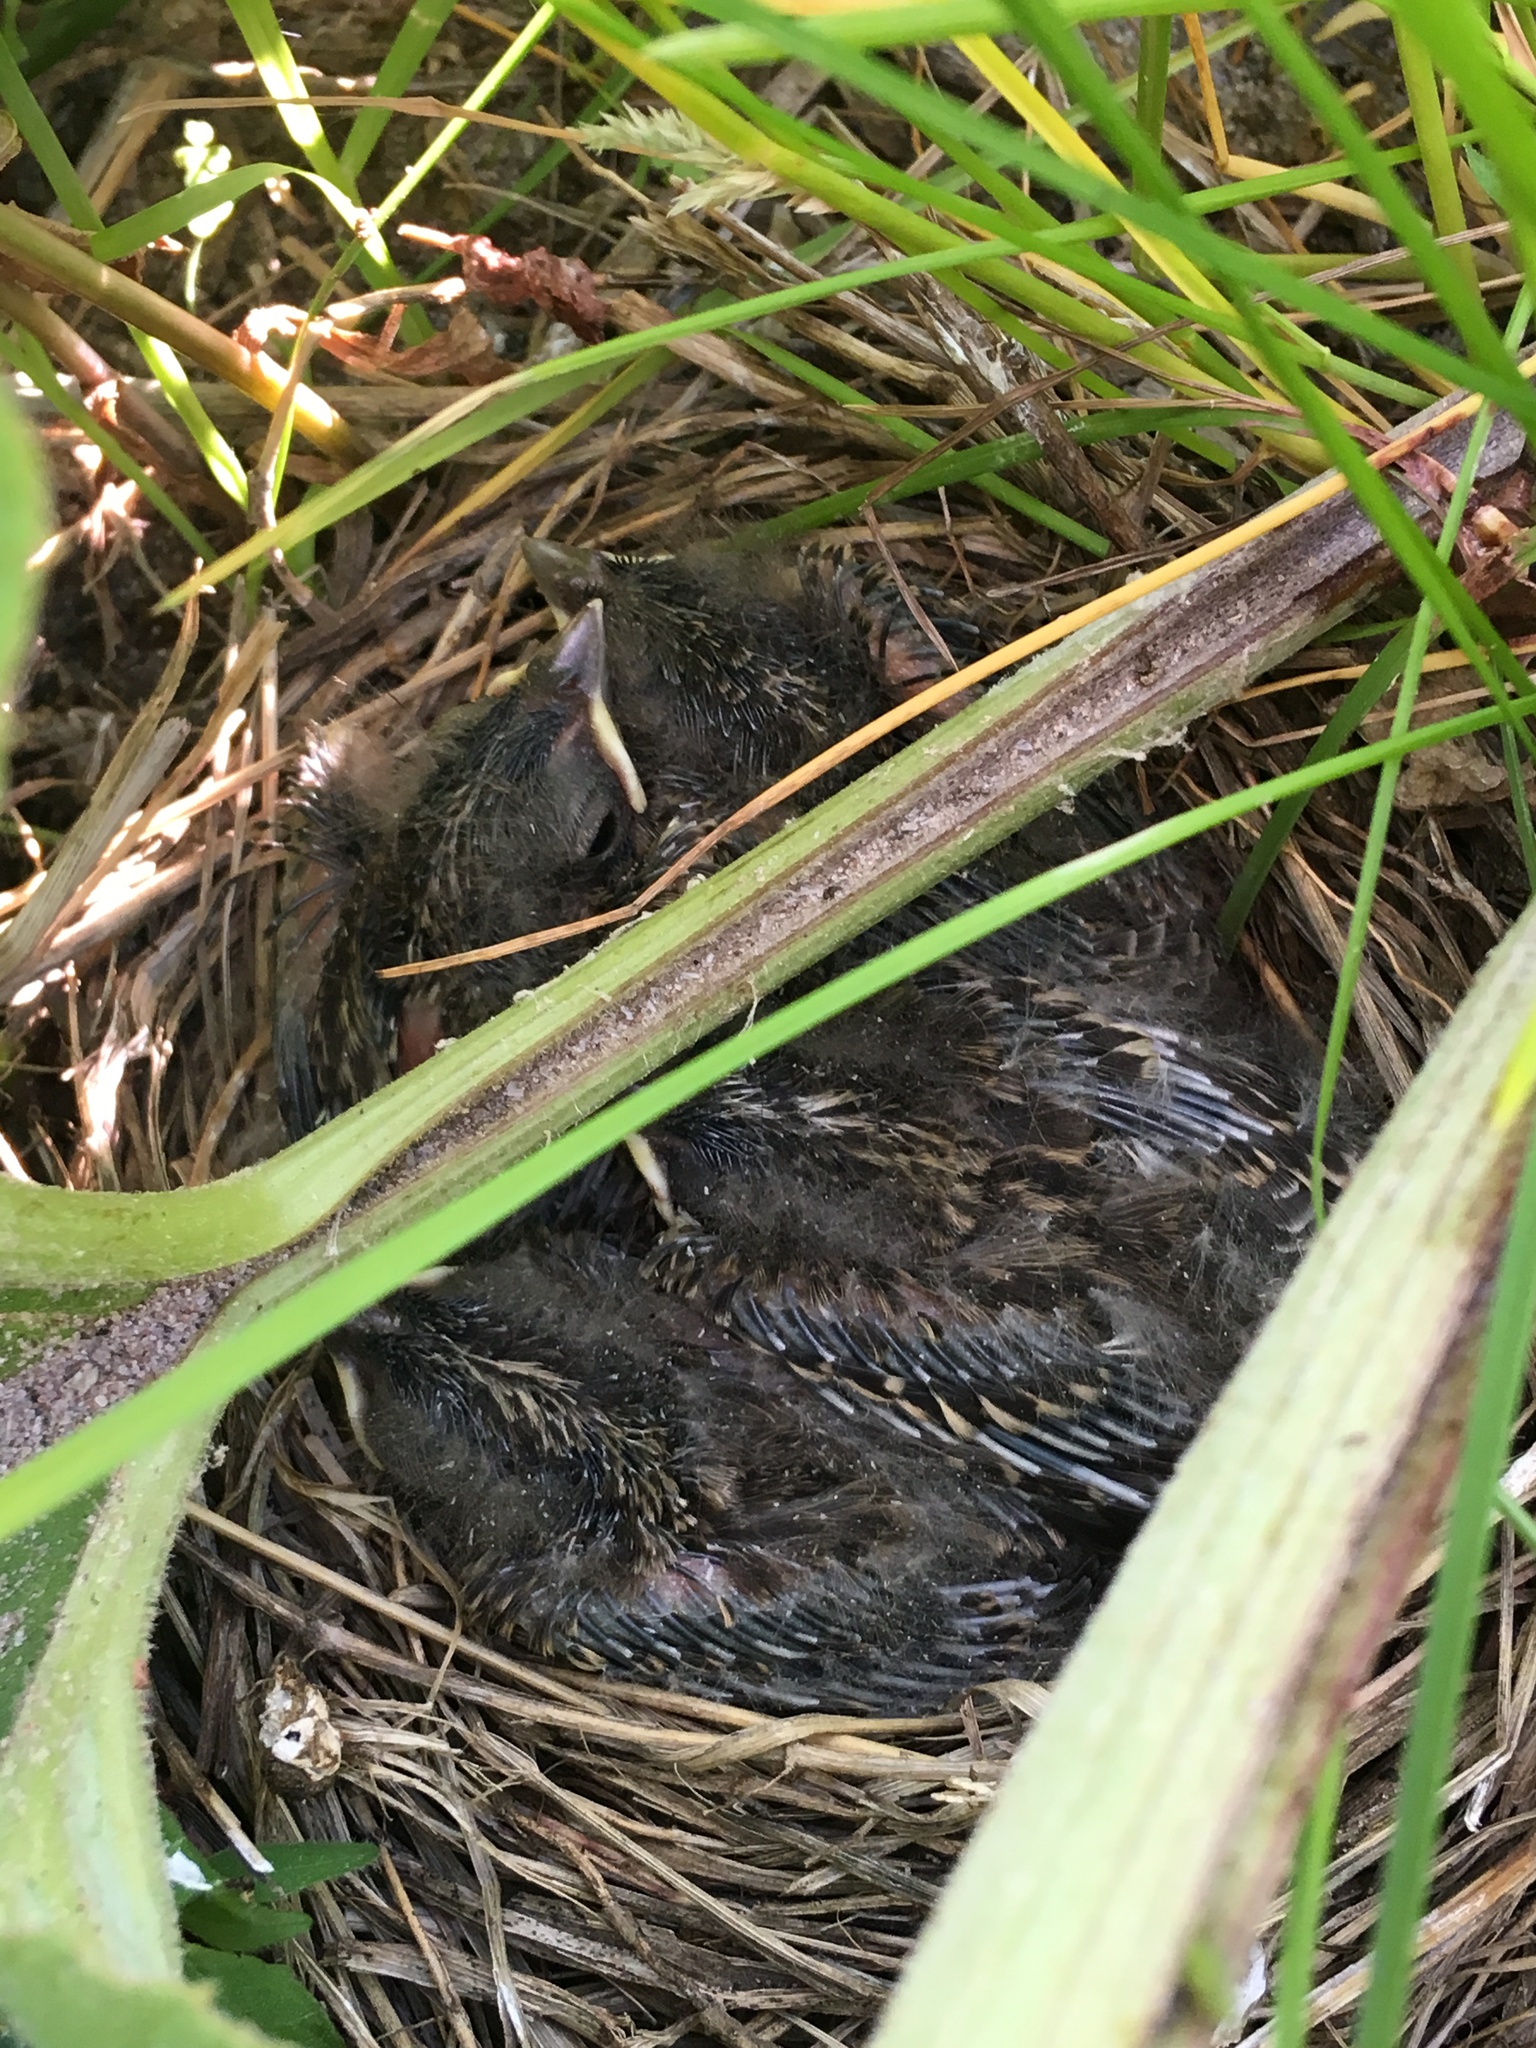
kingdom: Animalia
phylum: Chordata
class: Aves
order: Passeriformes
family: Passerellidae
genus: Chondestes
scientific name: Chondestes grammacus
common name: Lark sparrow
